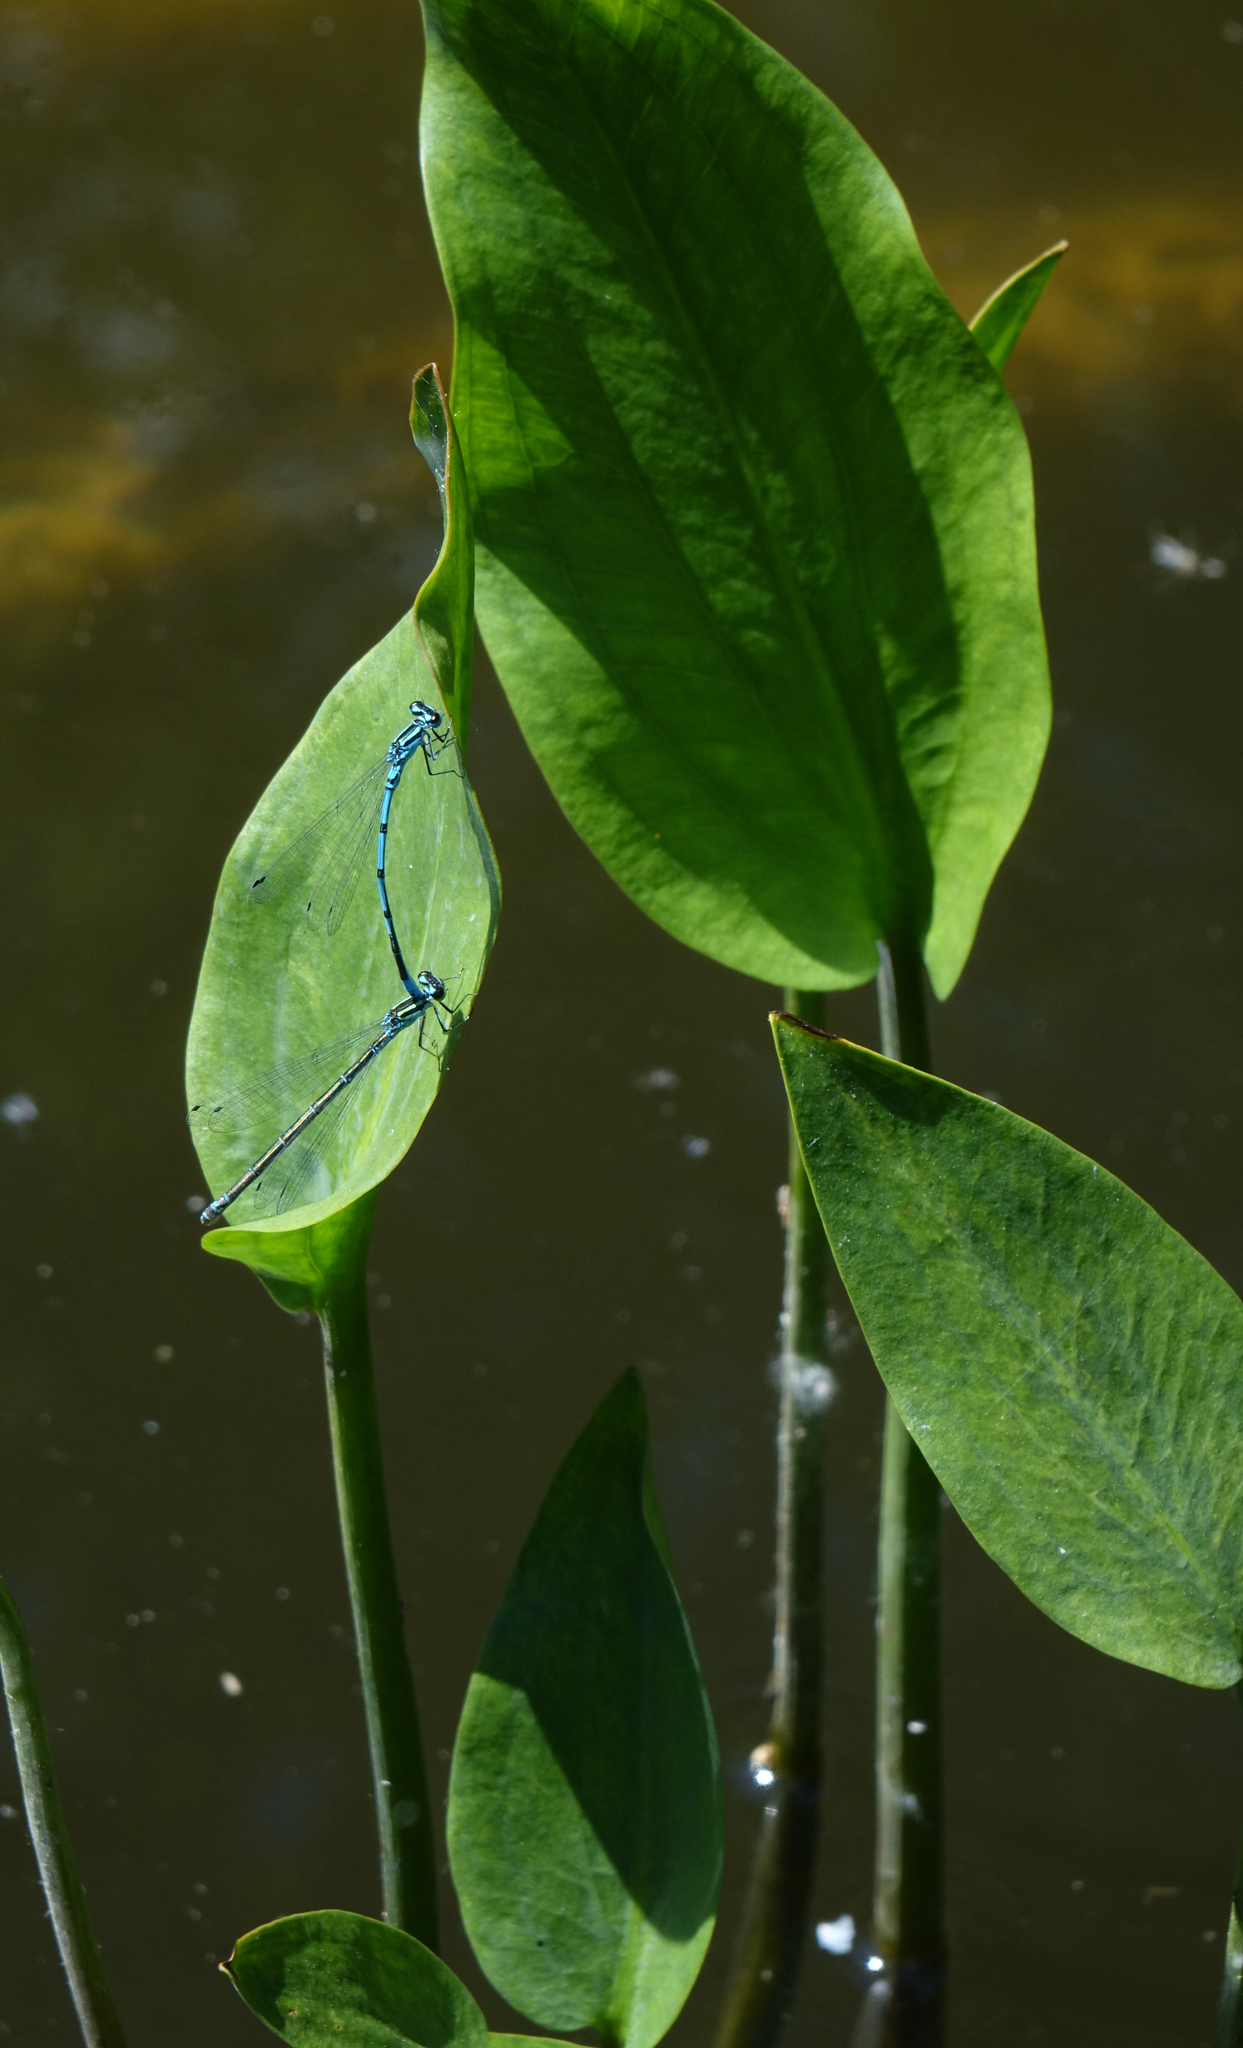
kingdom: Animalia
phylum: Arthropoda
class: Insecta
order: Odonata
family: Coenagrionidae
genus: Coenagrion
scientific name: Coenagrion puella
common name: Azure damselfly
